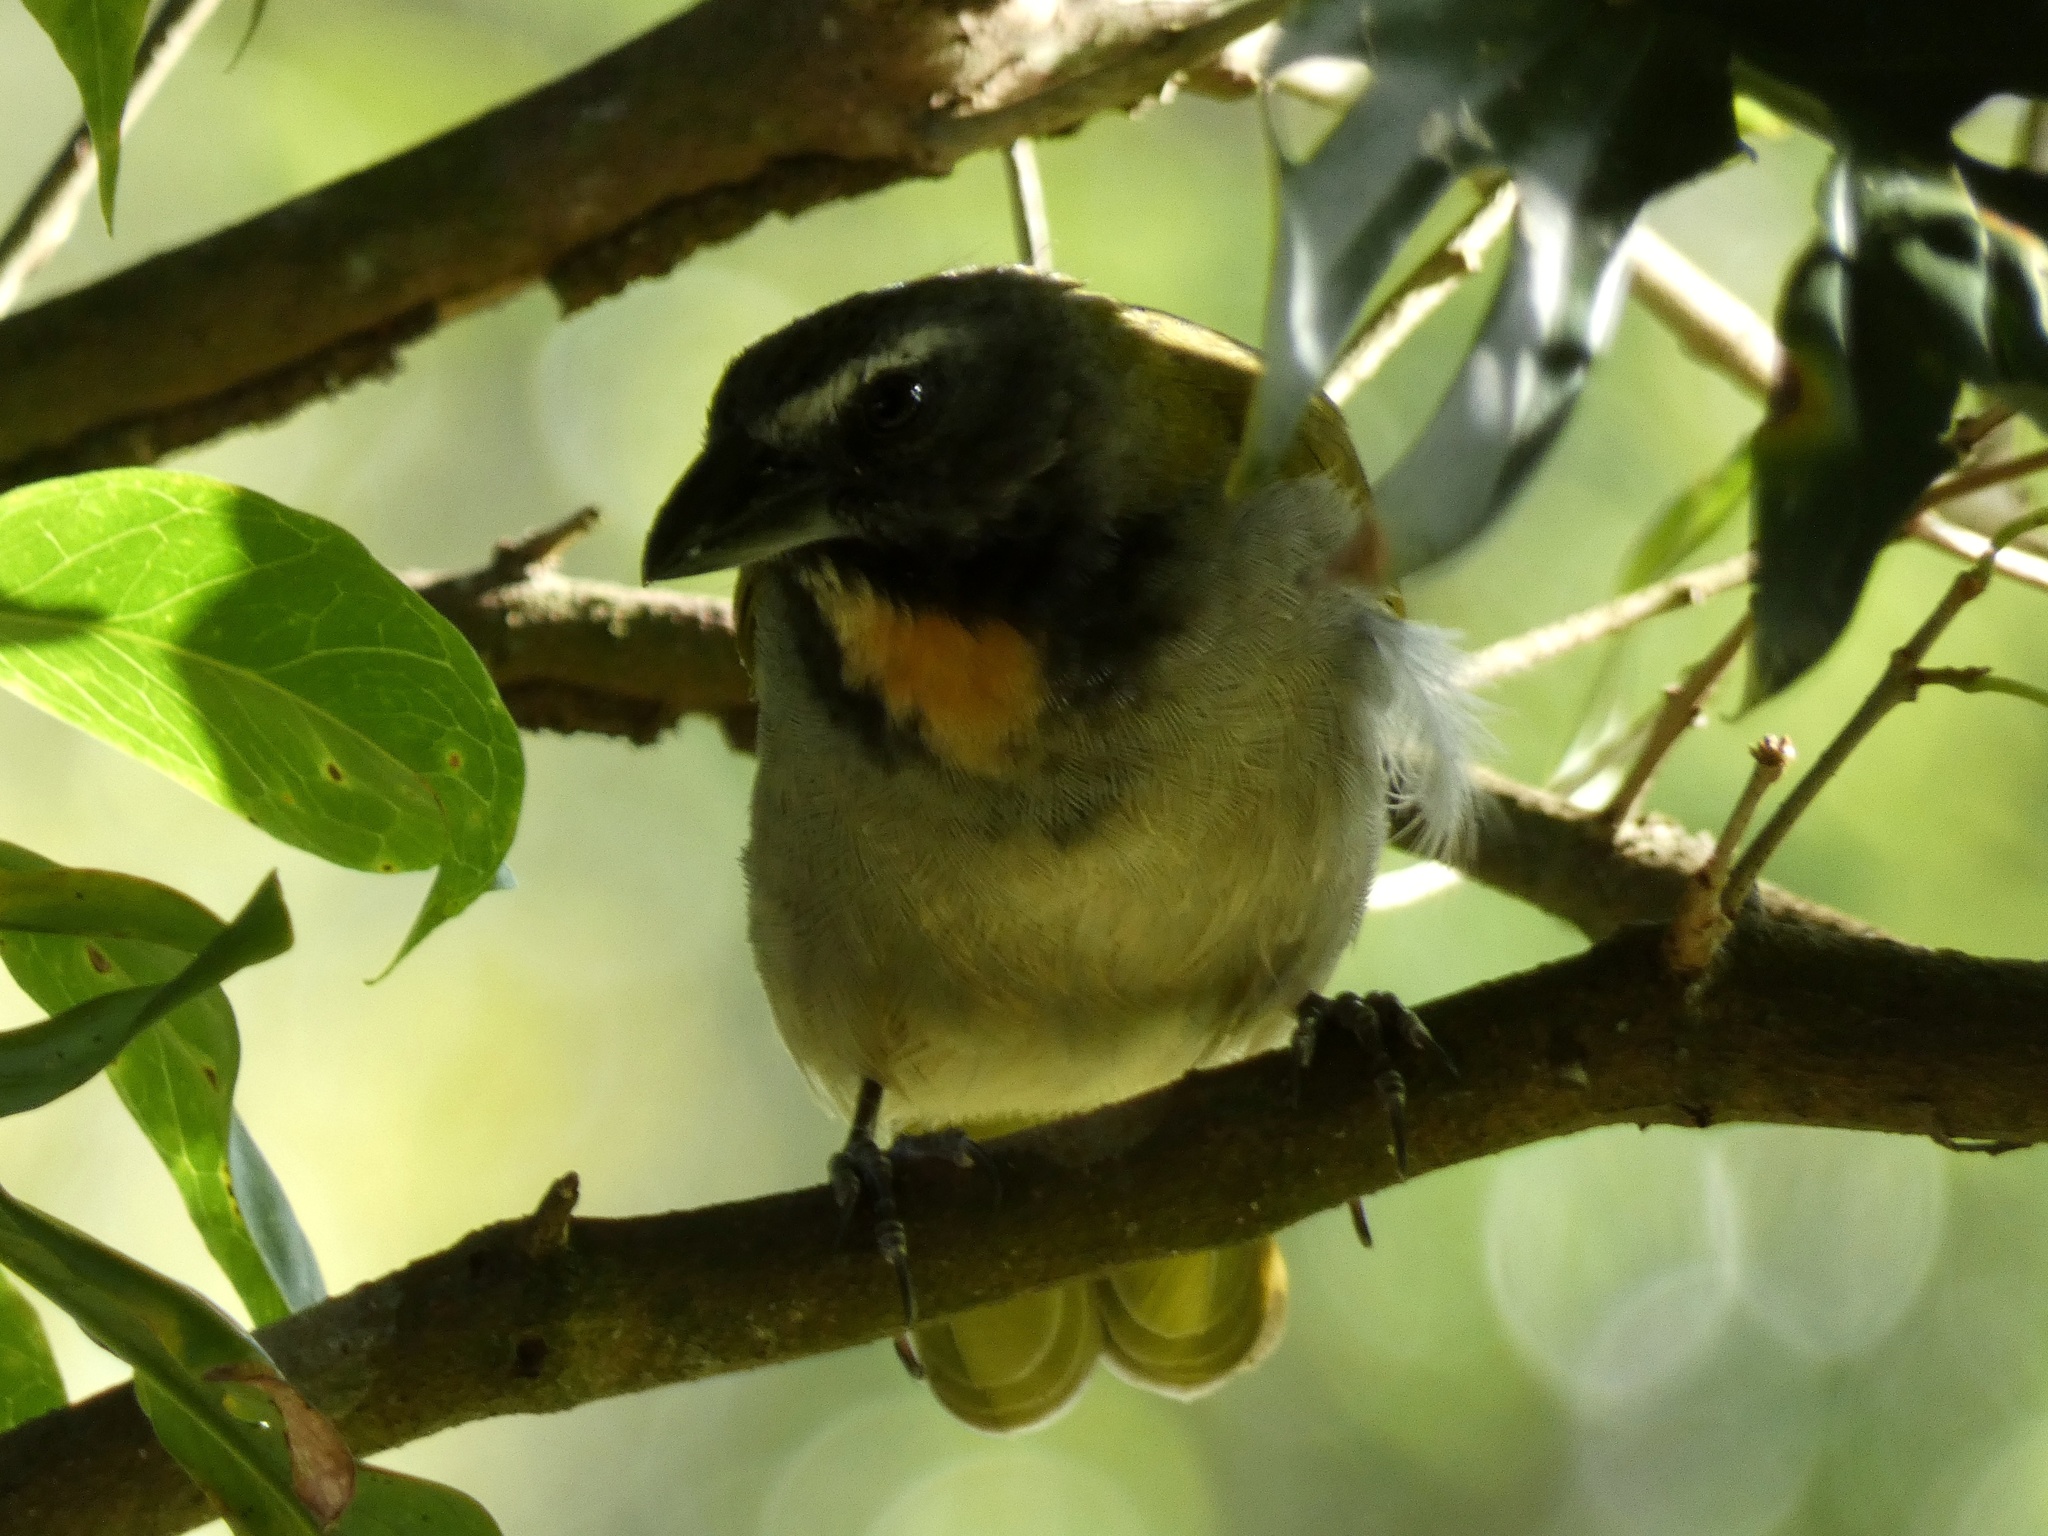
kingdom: Animalia
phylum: Chordata
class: Aves
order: Passeriformes
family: Thraupidae
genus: Saltator
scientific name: Saltator maximus
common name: Buff-throated saltator
